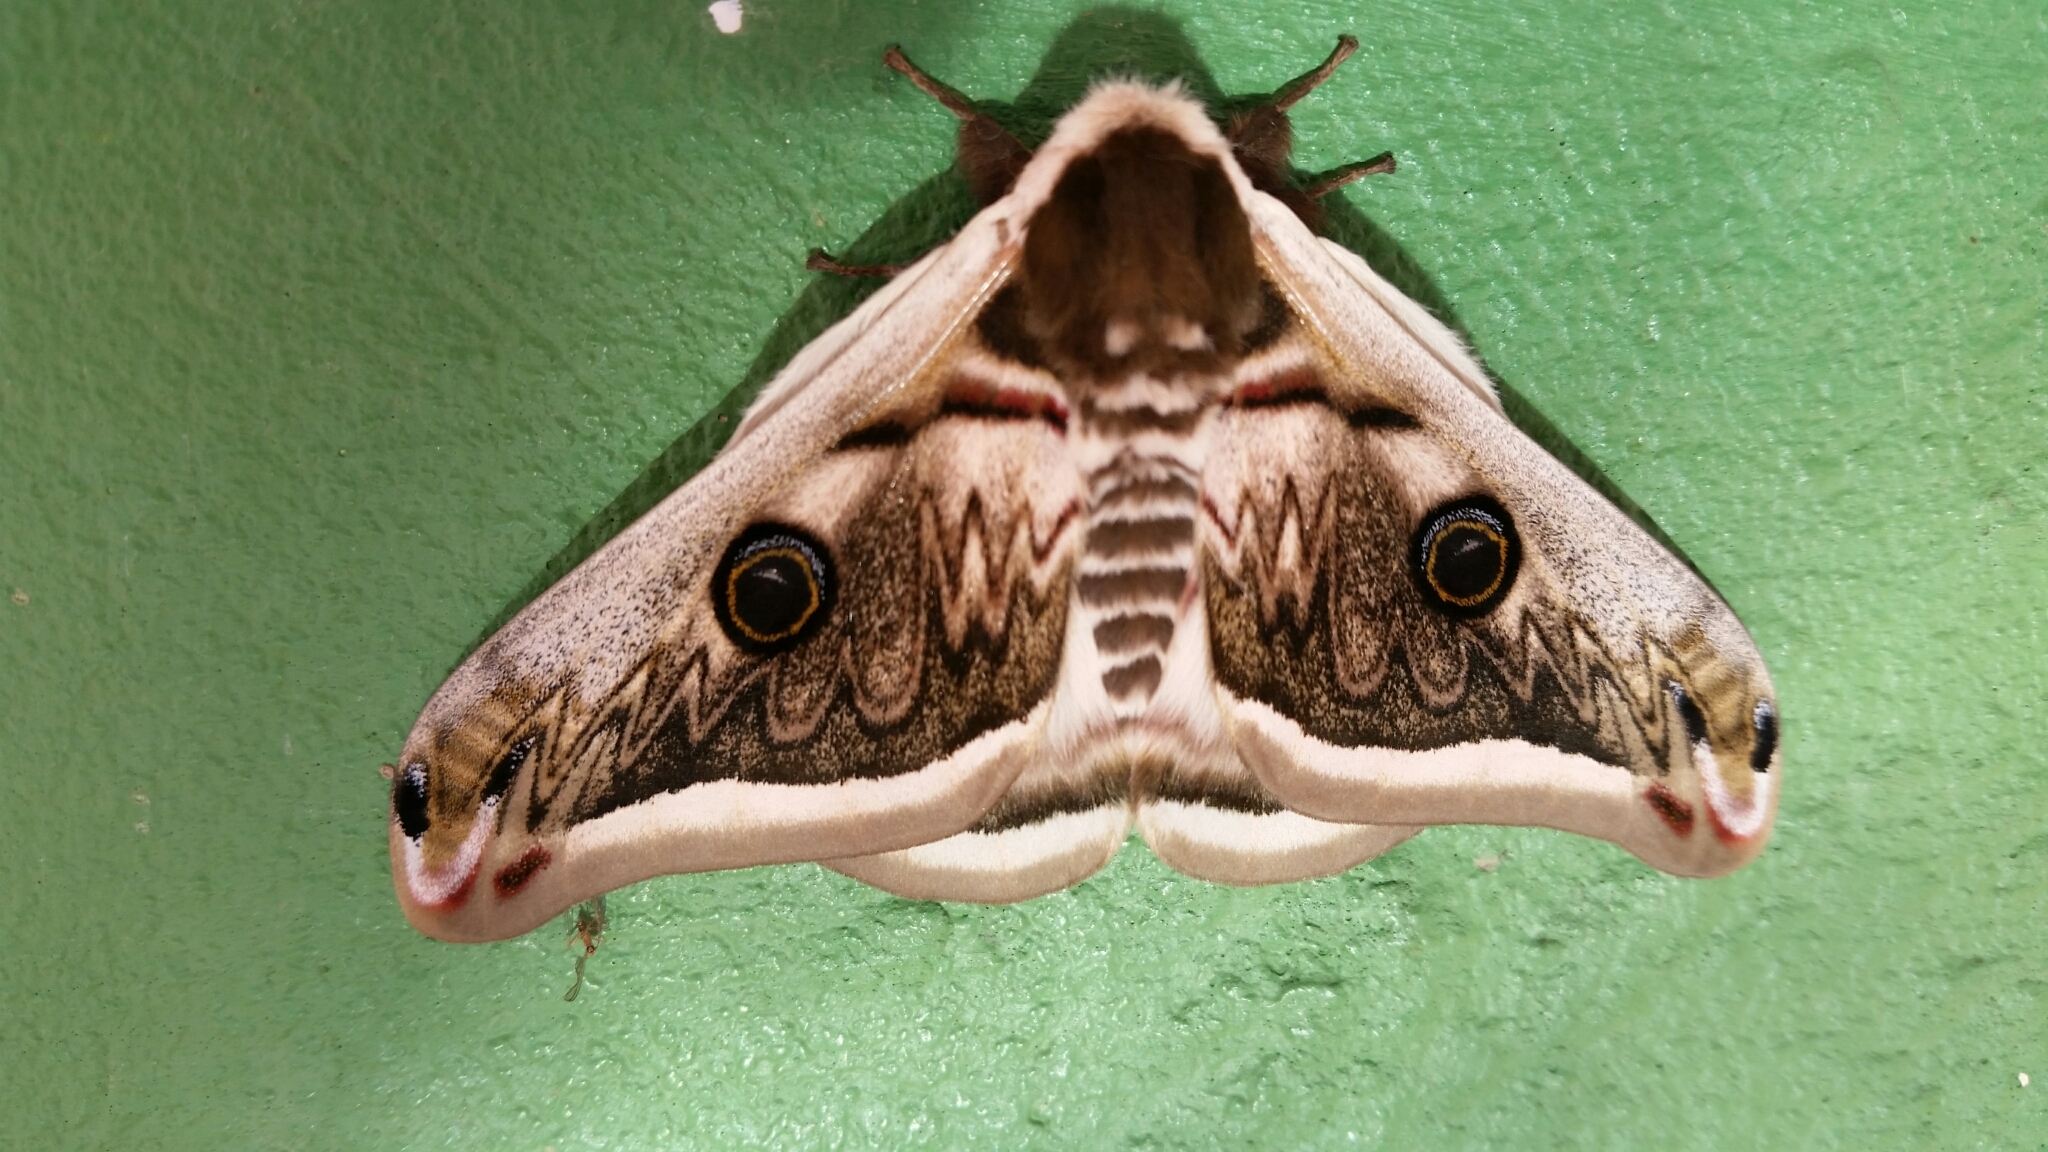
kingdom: Animalia
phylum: Arthropoda
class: Insecta
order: Lepidoptera
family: Saturniidae
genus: Saturnia
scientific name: Saturnia pyretorum
